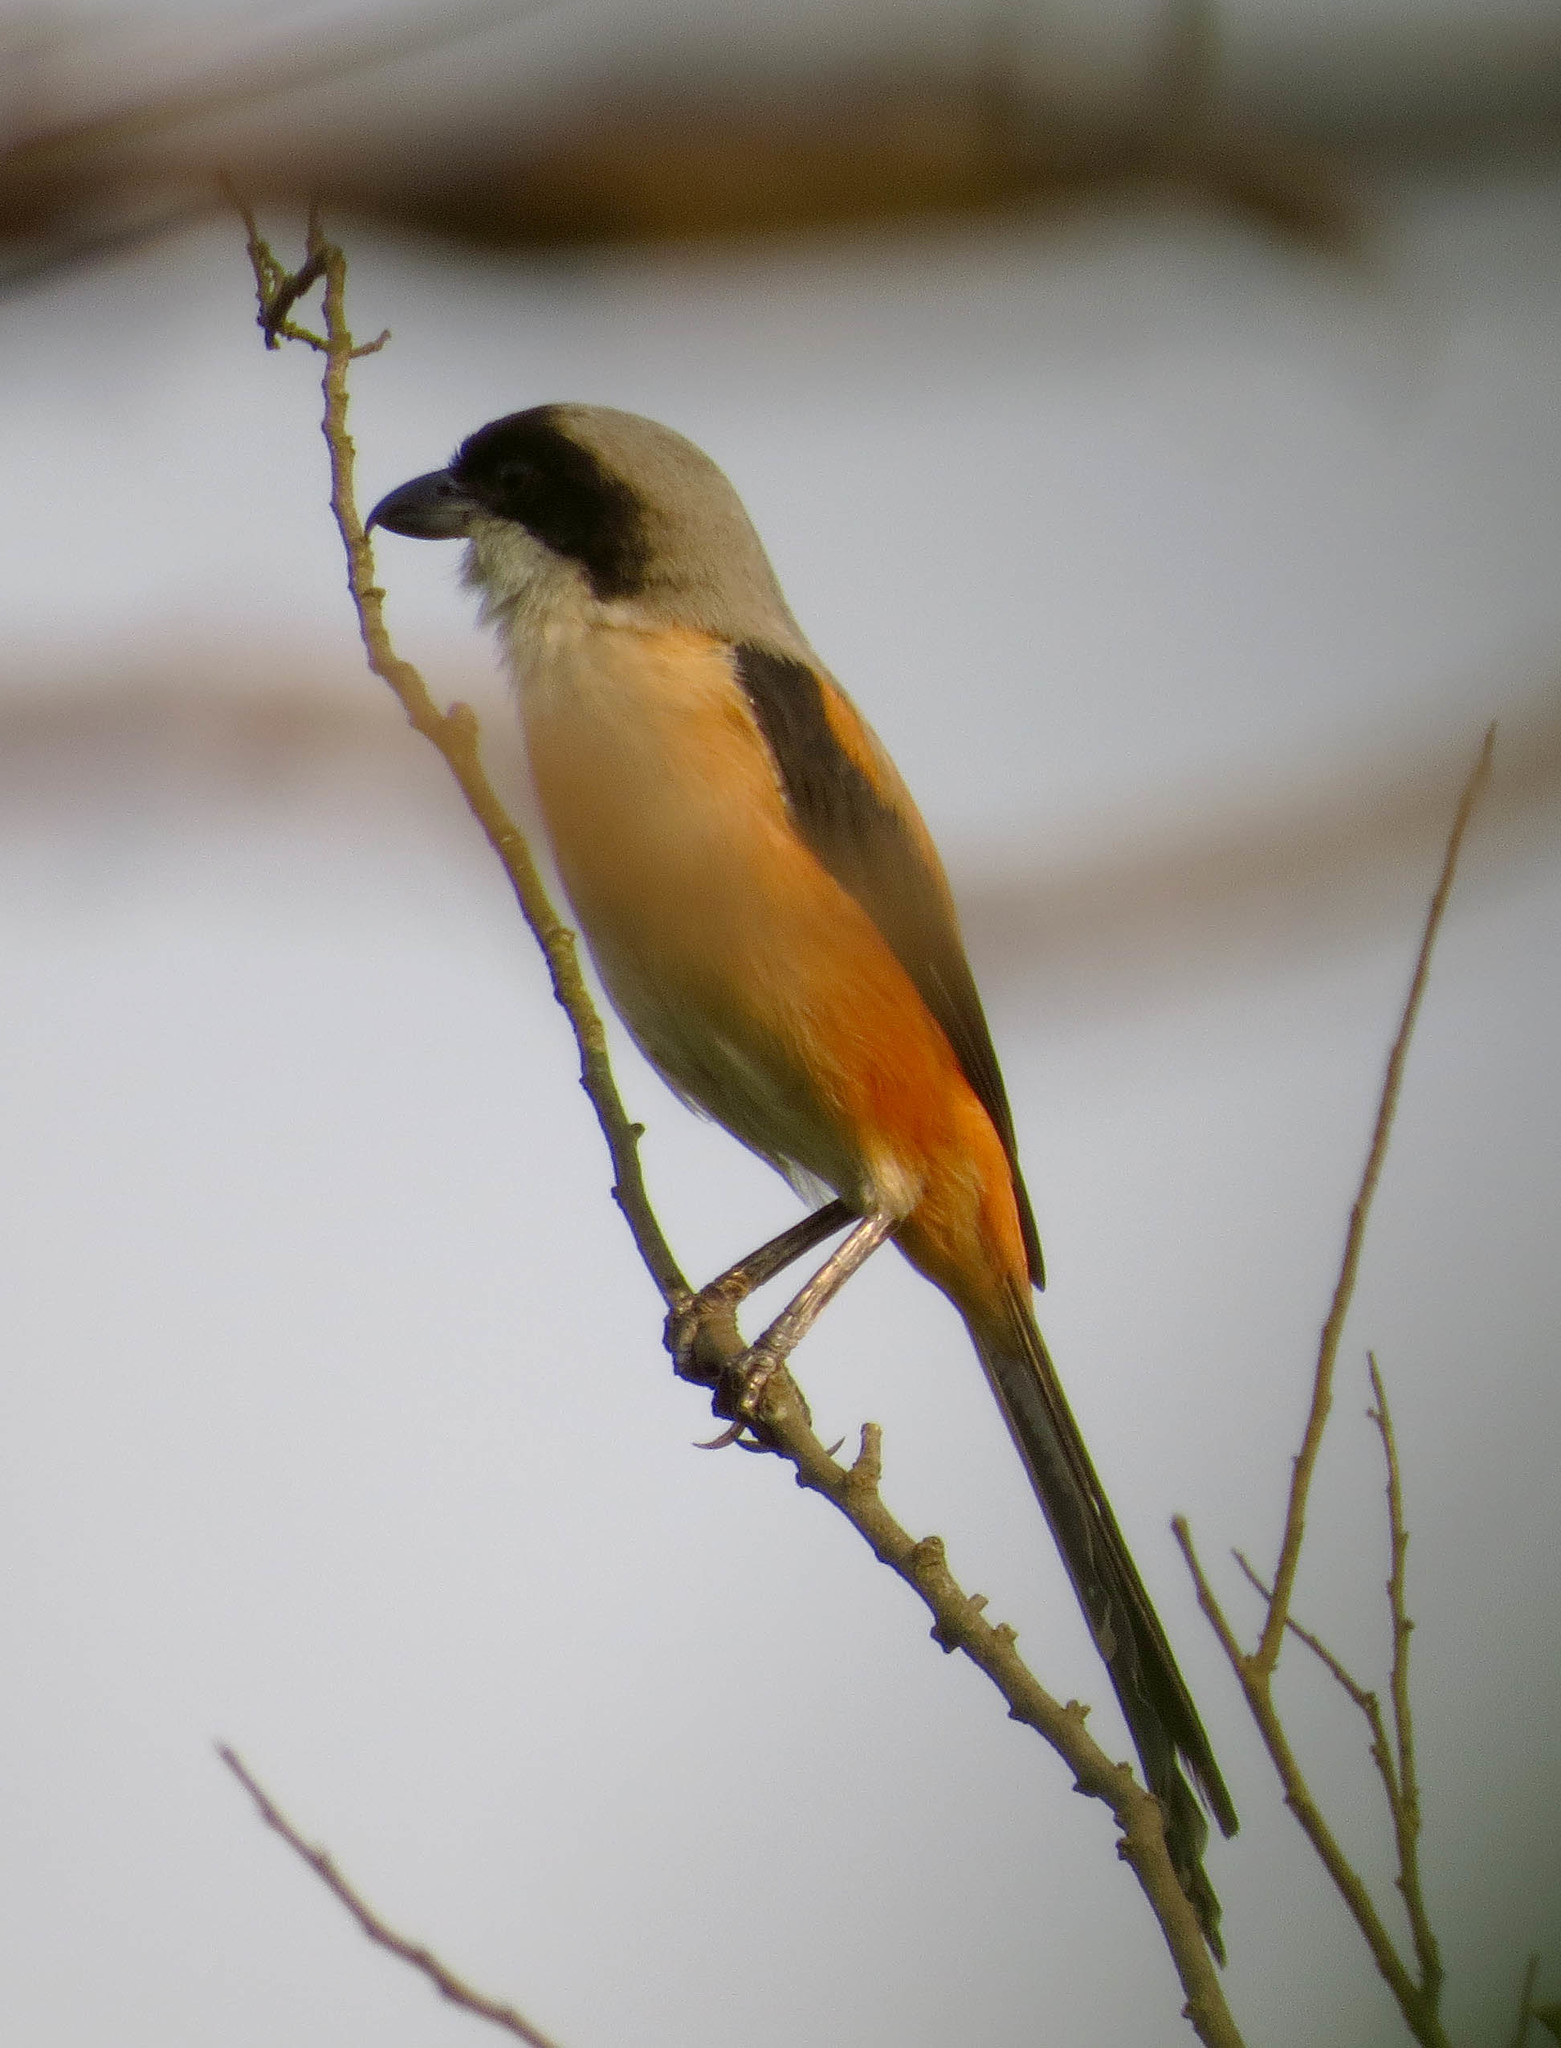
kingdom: Animalia
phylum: Chordata
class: Aves
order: Passeriformes
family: Laniidae
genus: Lanius
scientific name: Lanius schach
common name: Long-tailed shrike
